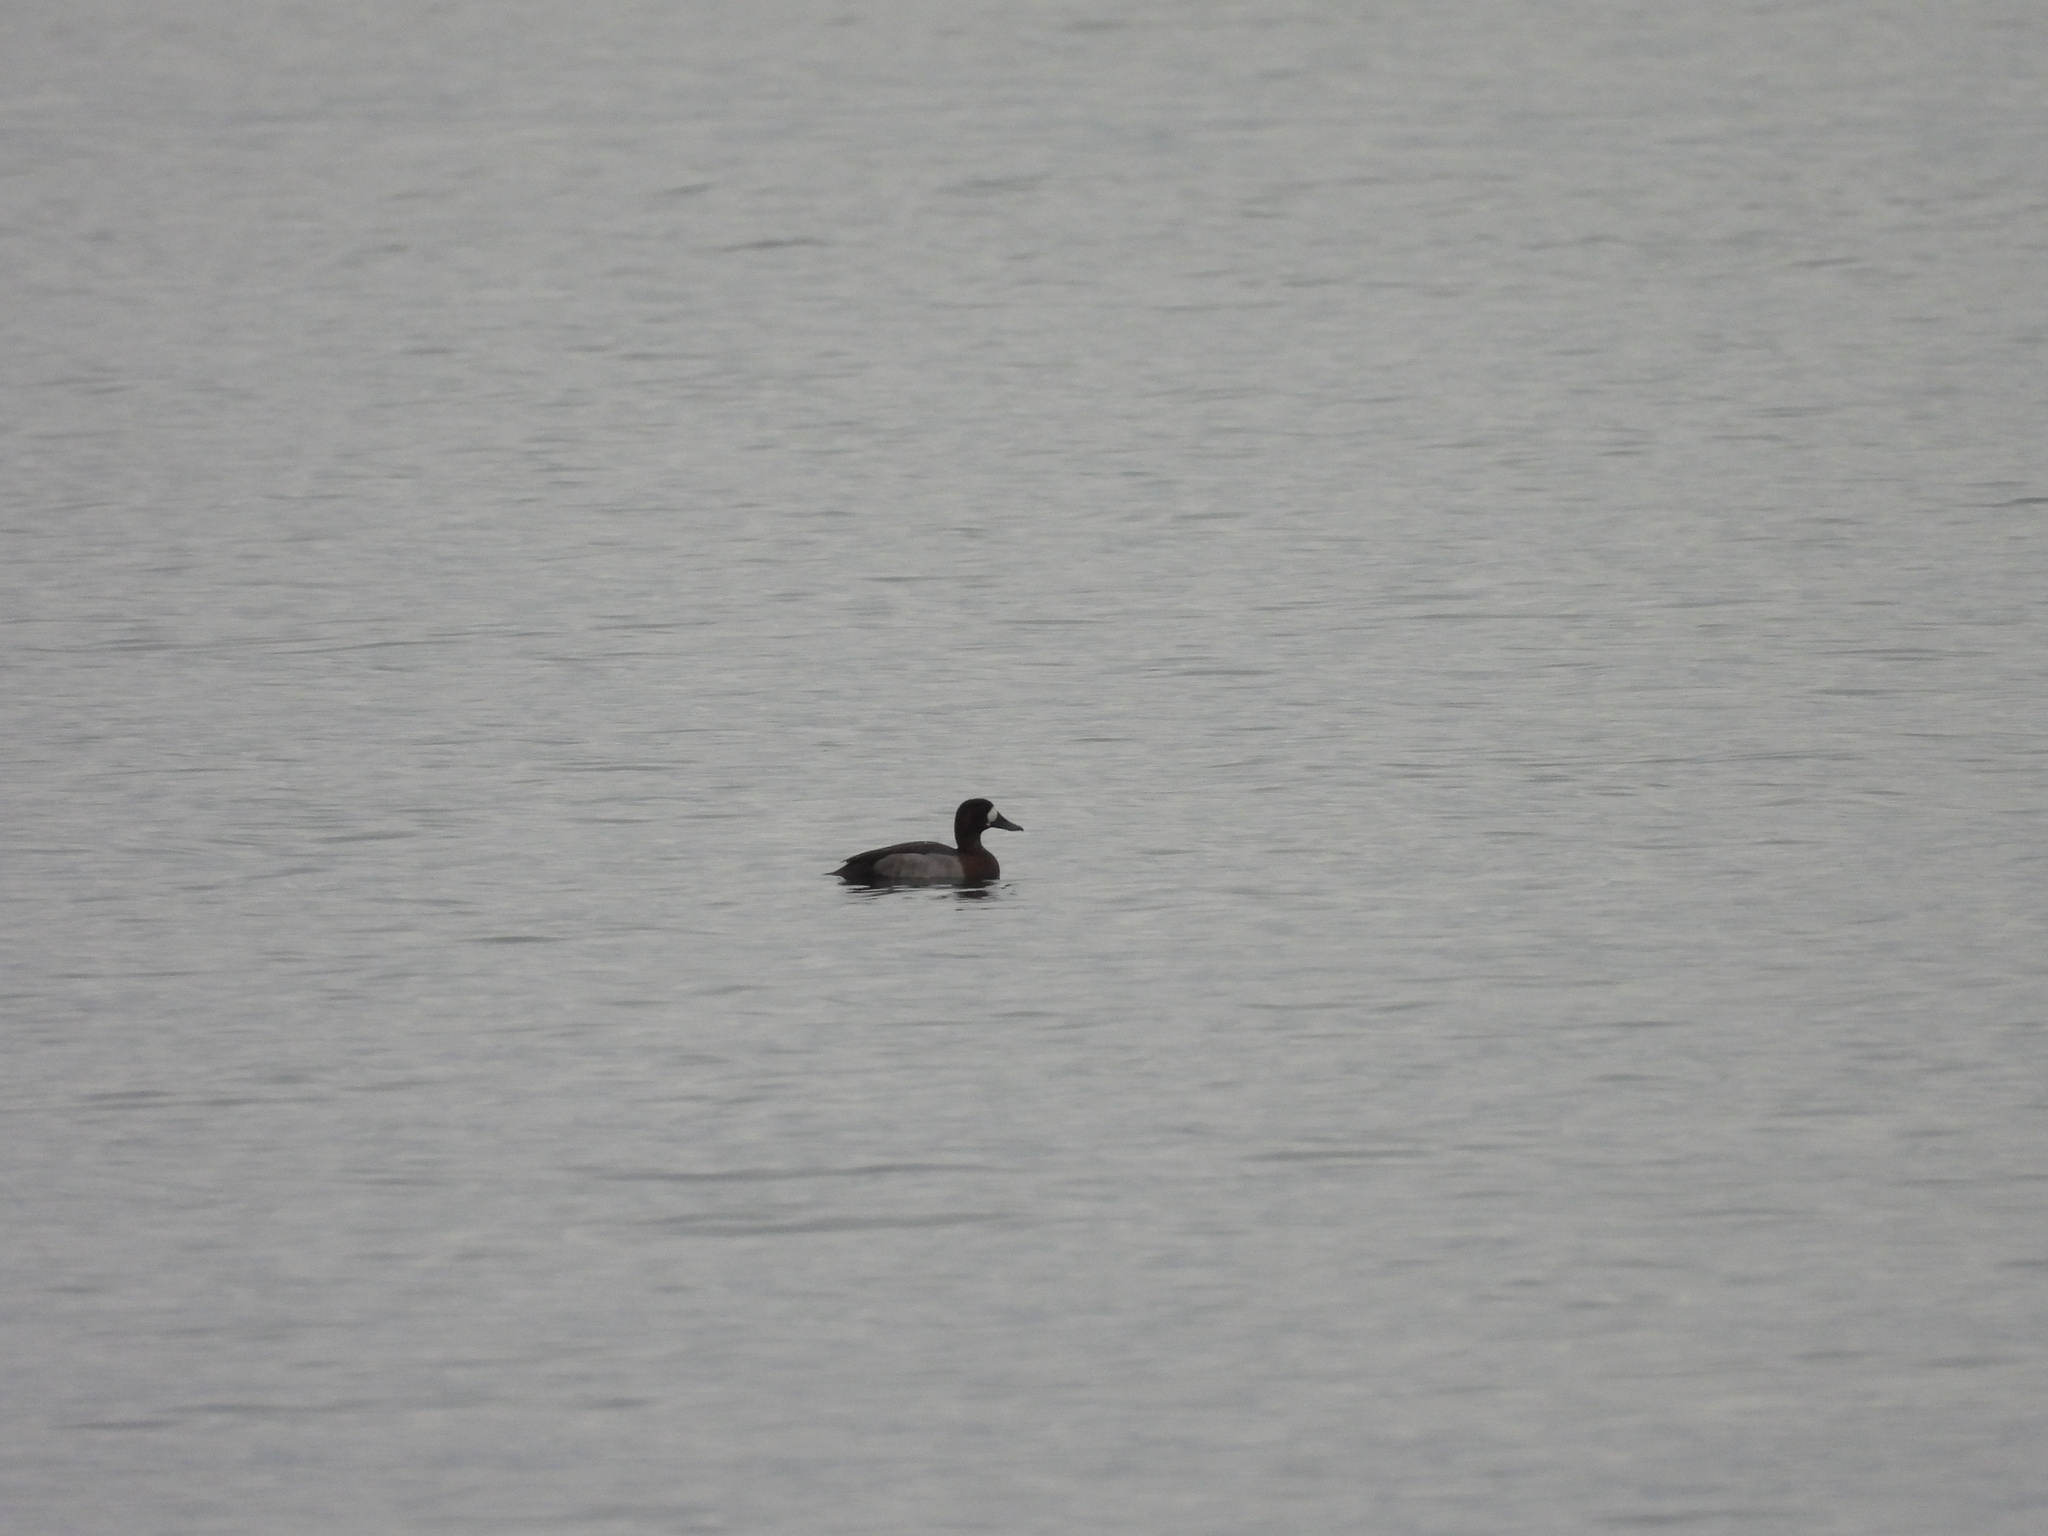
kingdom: Animalia
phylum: Chordata
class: Aves
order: Anseriformes
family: Anatidae
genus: Aythya
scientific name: Aythya marila
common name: Greater scaup
